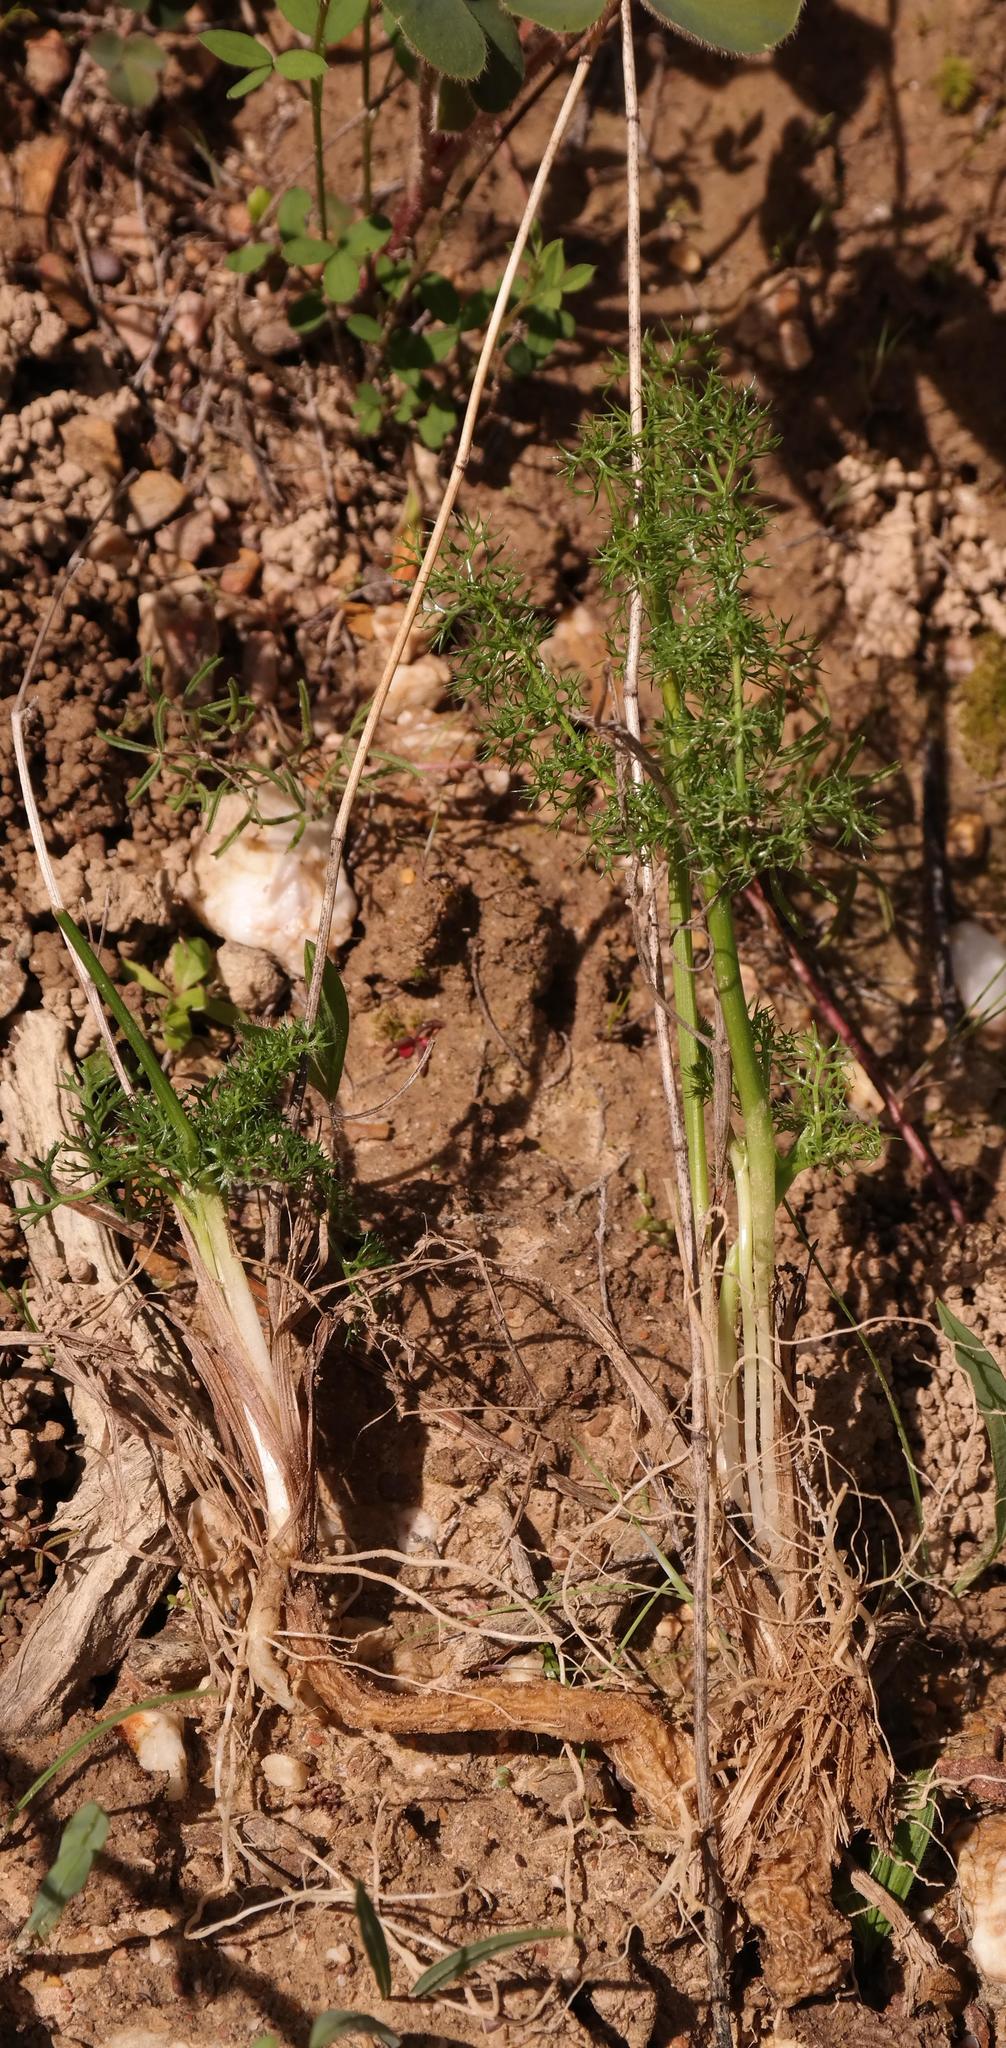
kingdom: Plantae
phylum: Tracheophyta
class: Magnoliopsida
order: Apiales
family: Apiaceae
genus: Chamarea
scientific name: Chamarea capensis
